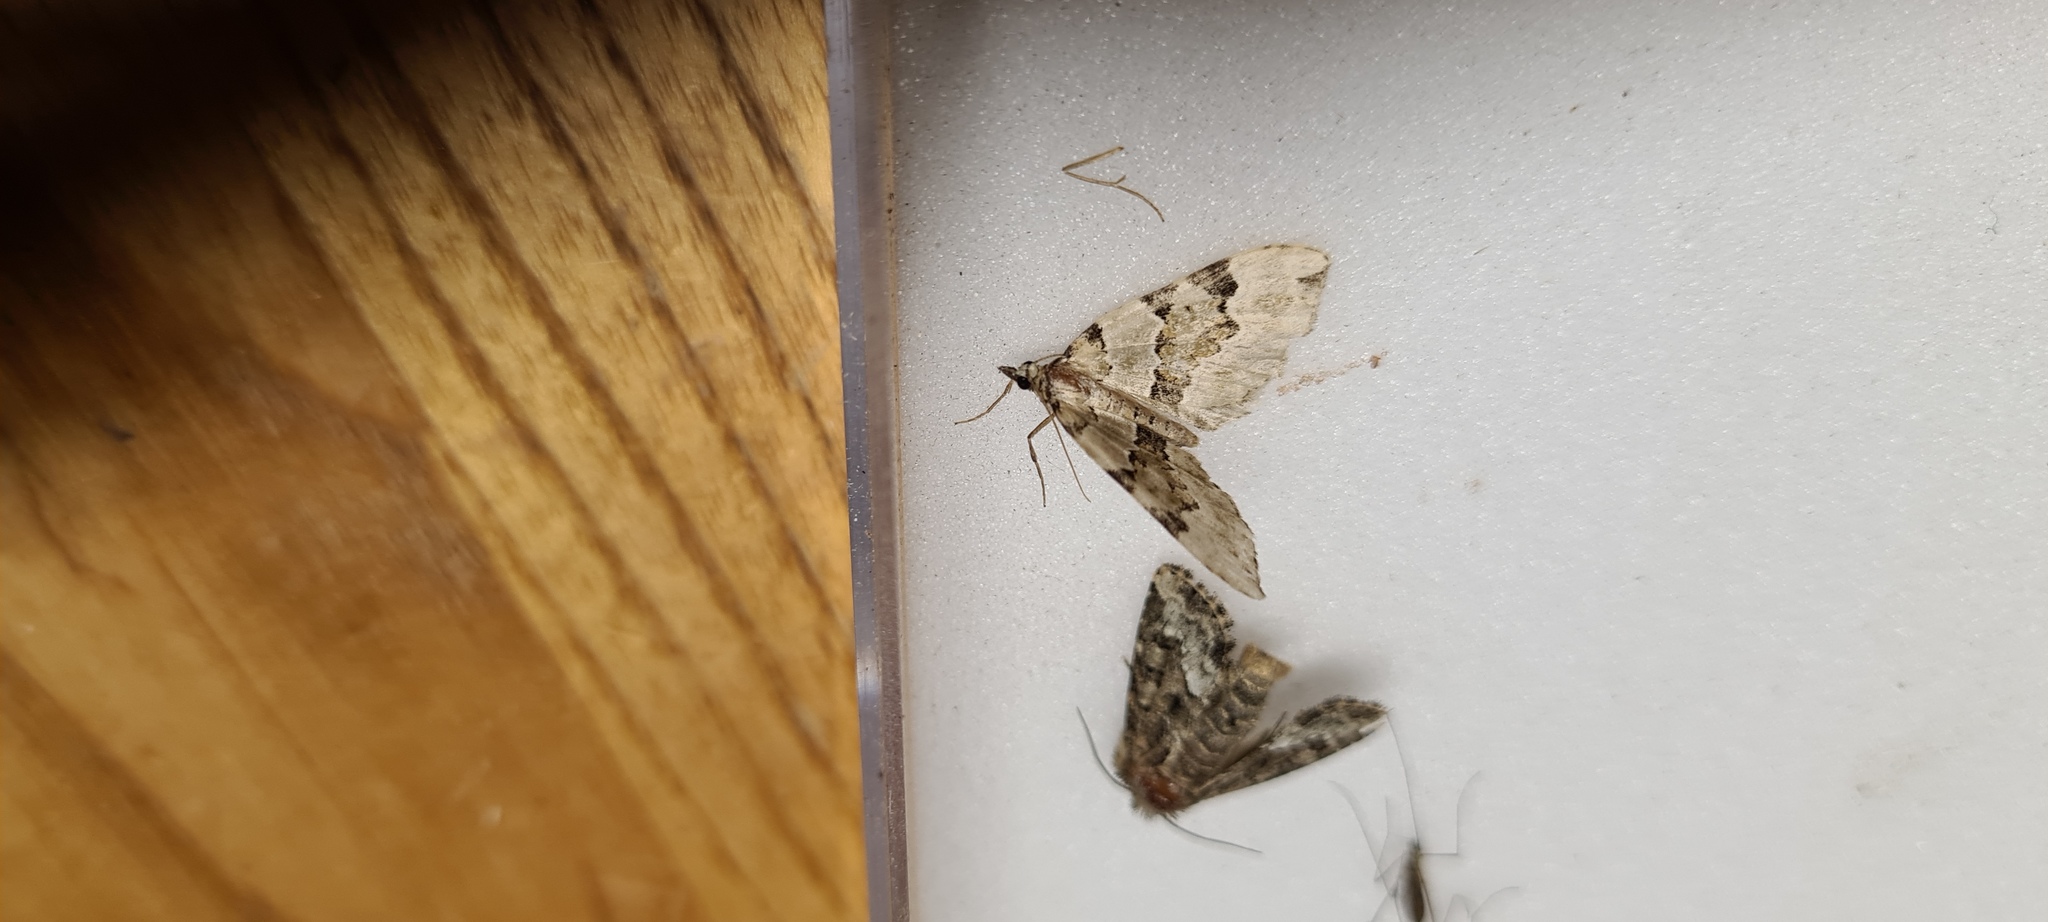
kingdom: Animalia
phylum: Arthropoda
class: Insecta
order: Lepidoptera
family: Geometridae
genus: Colostygia
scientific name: Colostygia pectinataria
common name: Green carpet
